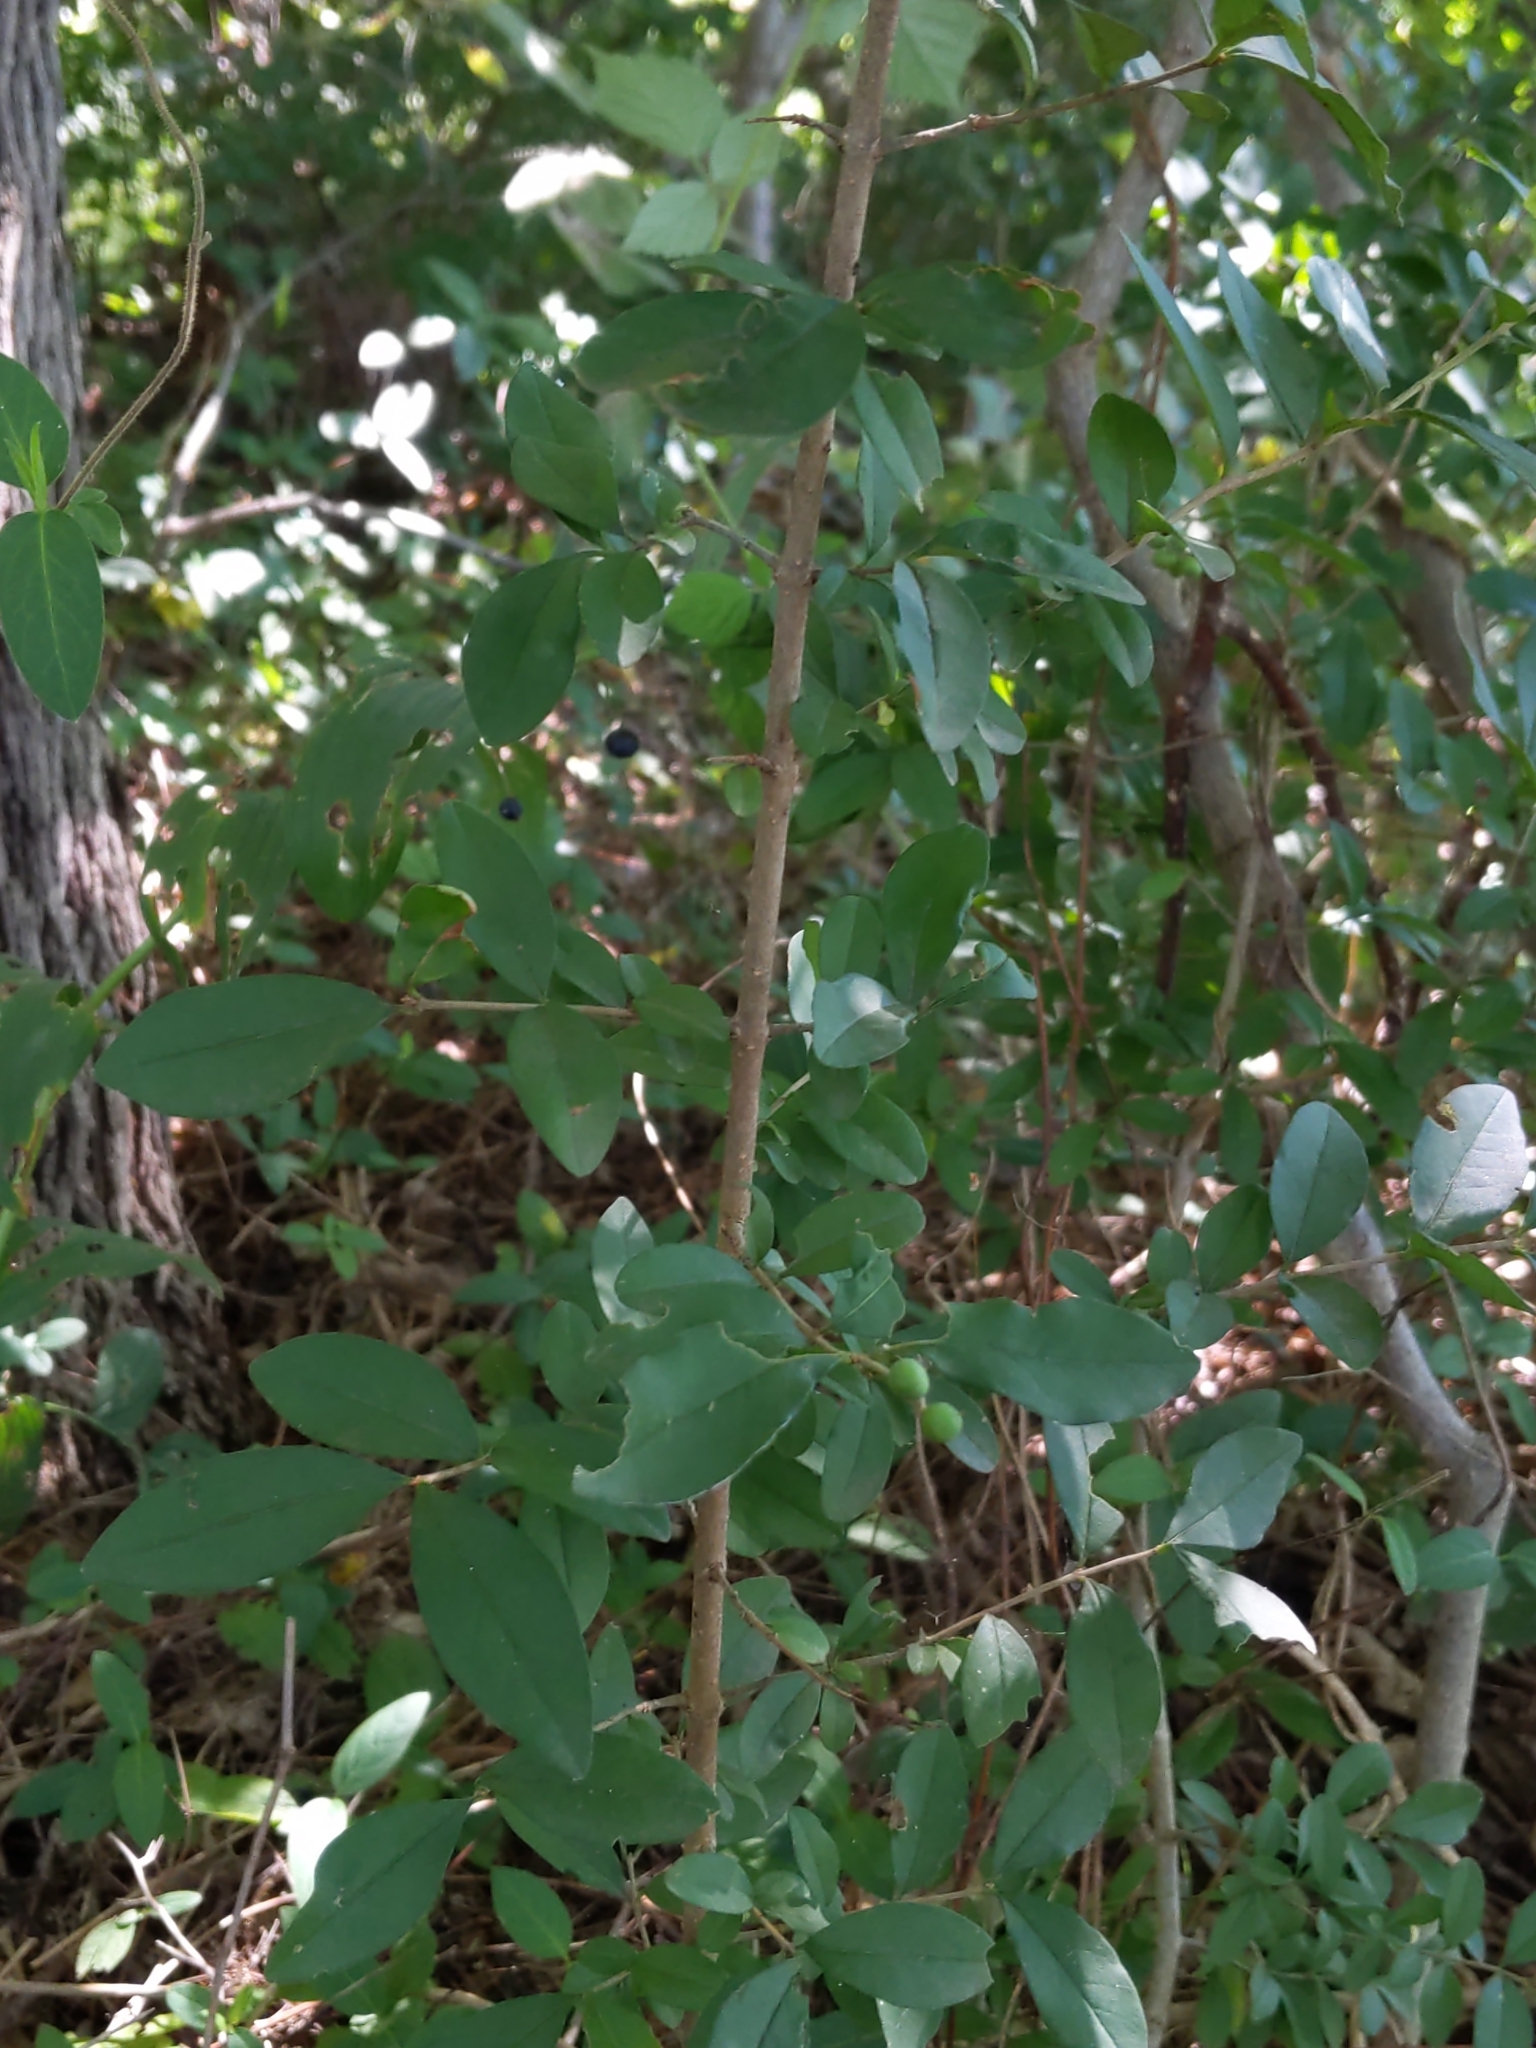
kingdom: Plantae
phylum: Tracheophyta
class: Magnoliopsida
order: Lamiales
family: Oleaceae
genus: Ligustrum
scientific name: Ligustrum obtusifolium
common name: Border privet
